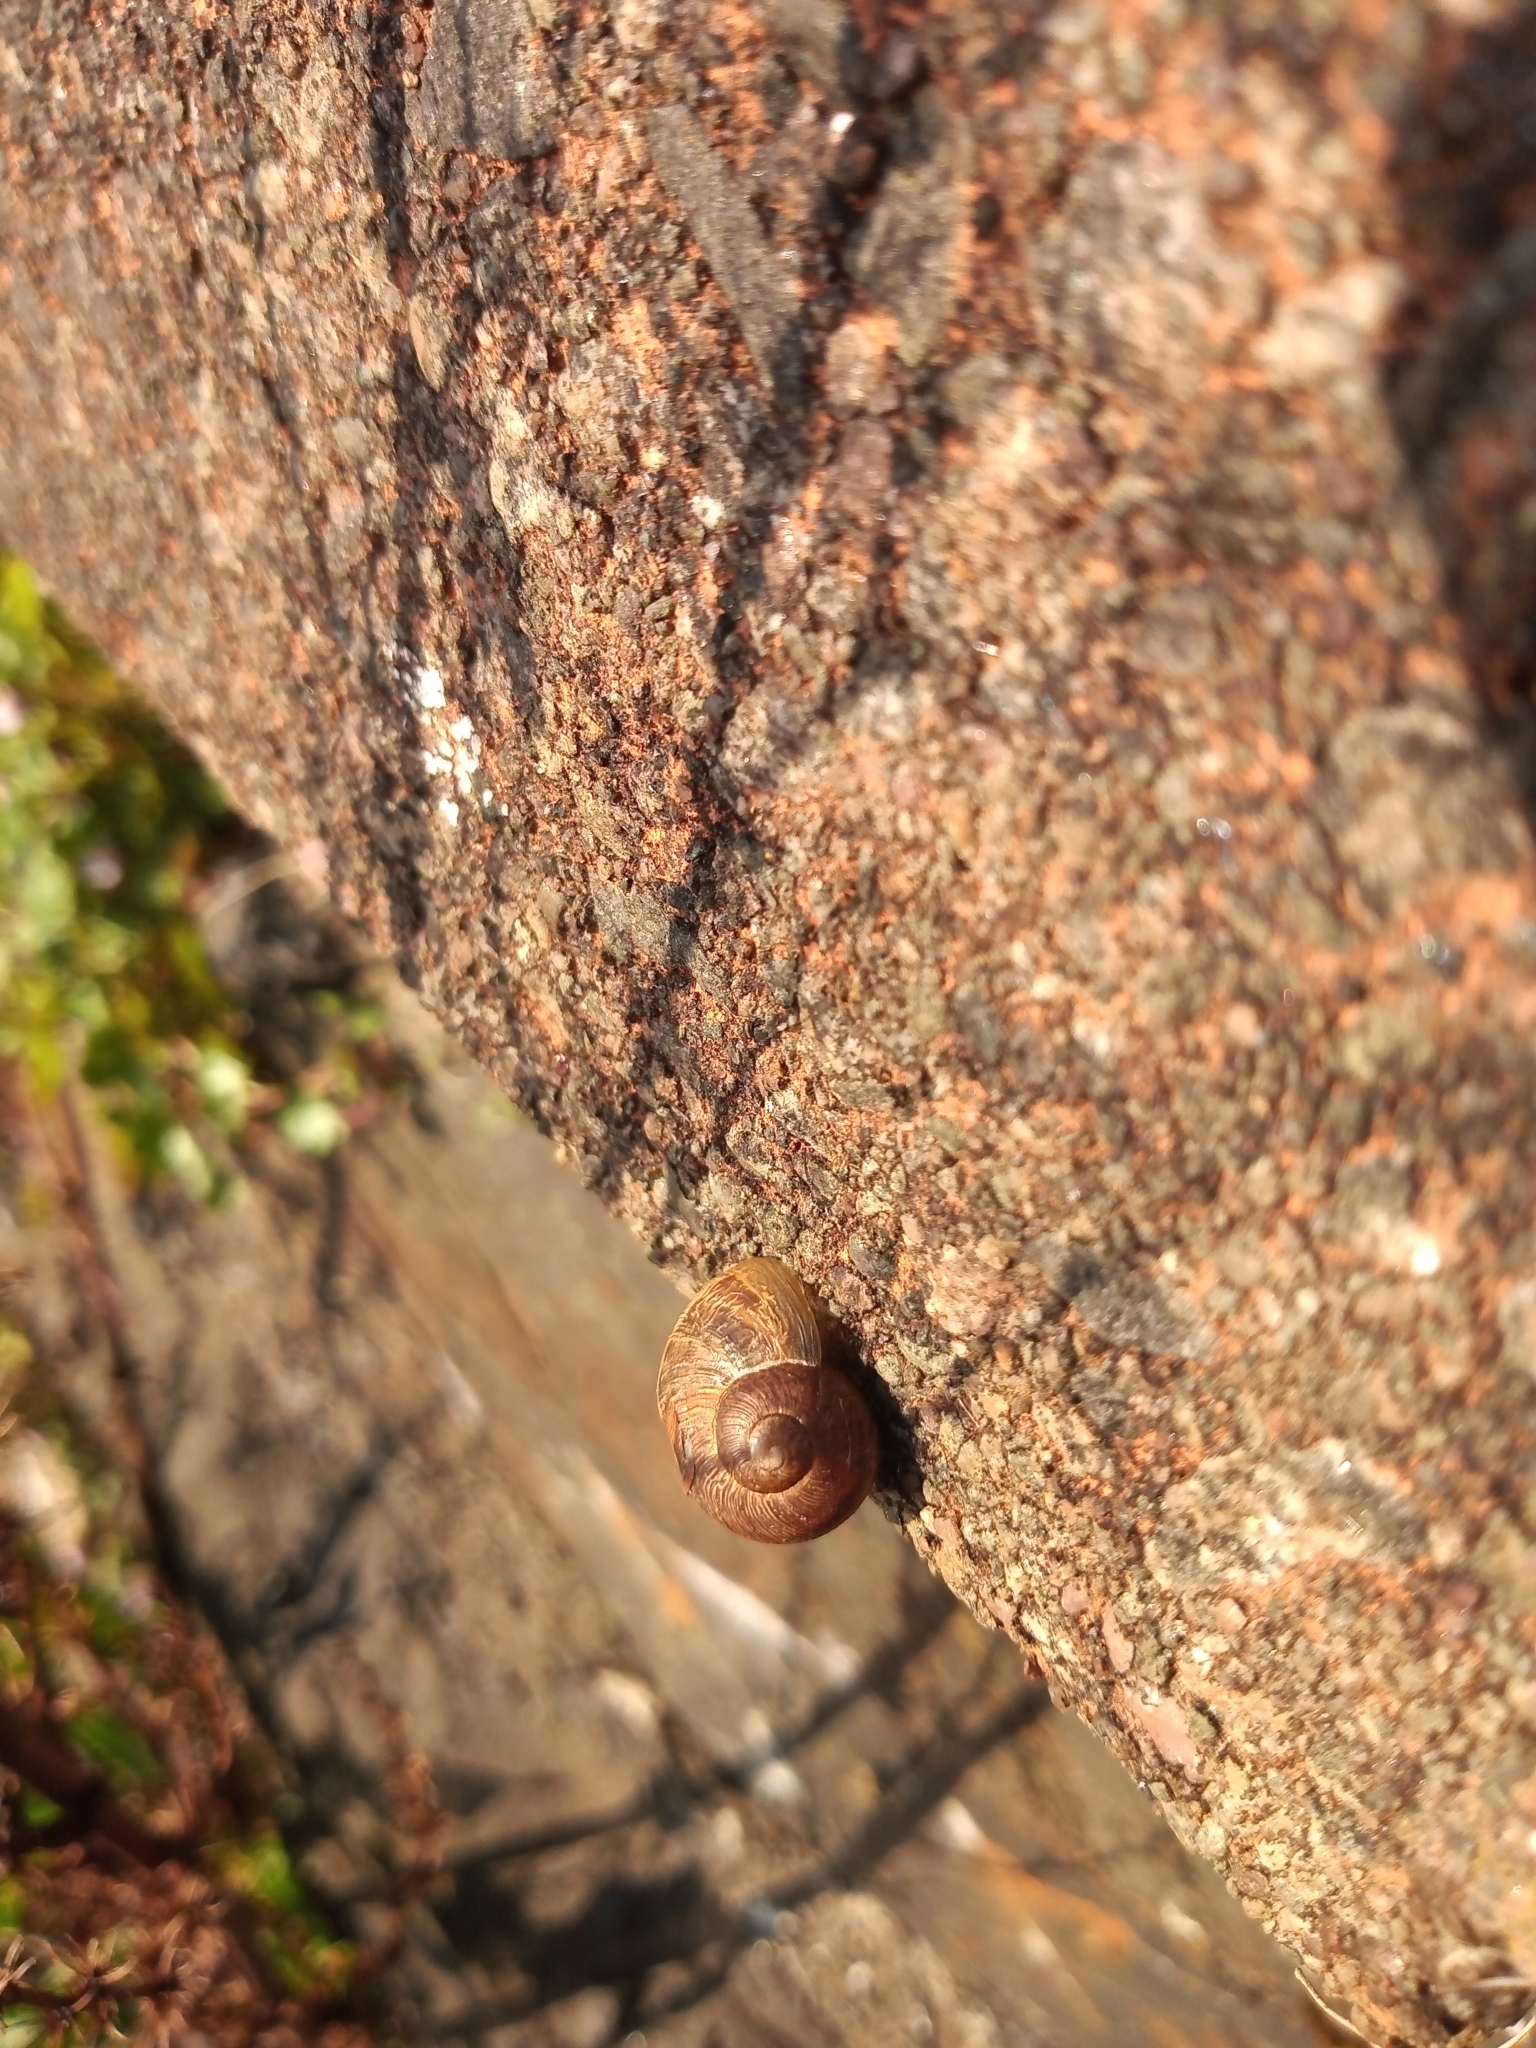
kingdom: Animalia
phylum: Mollusca
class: Gastropoda
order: Stylommatophora
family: Helicidae
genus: Cornu
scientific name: Cornu aspersum
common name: Brown garden snail
